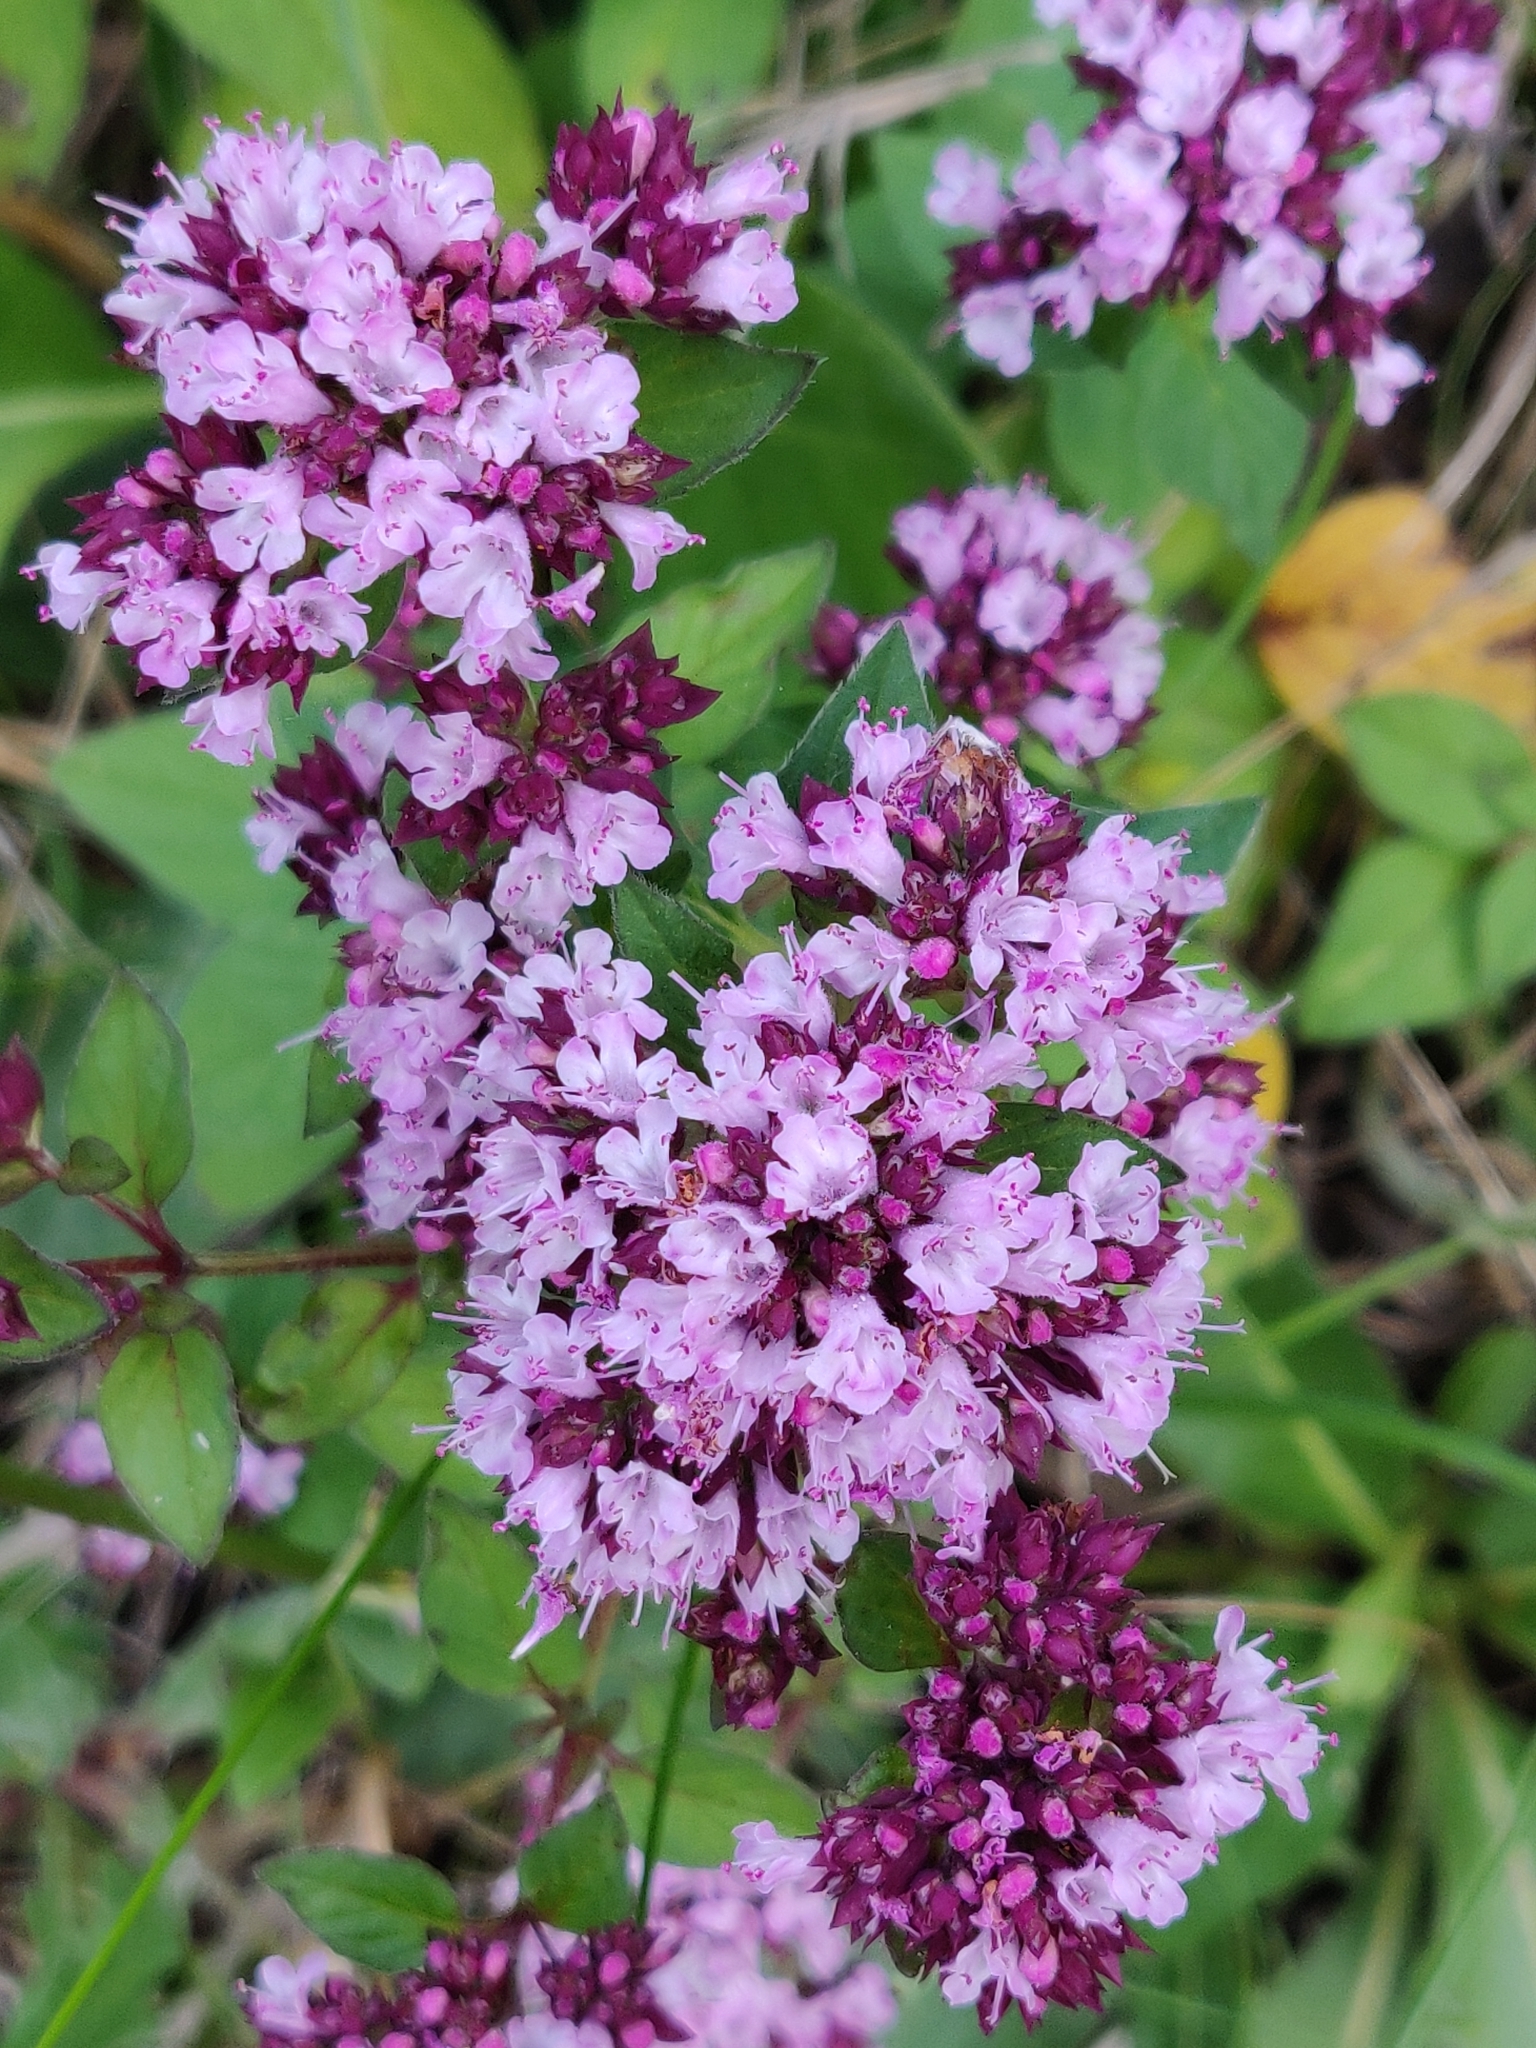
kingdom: Plantae
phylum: Tracheophyta
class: Magnoliopsida
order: Lamiales
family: Lamiaceae
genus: Origanum
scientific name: Origanum vulgare
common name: Wild marjoram
